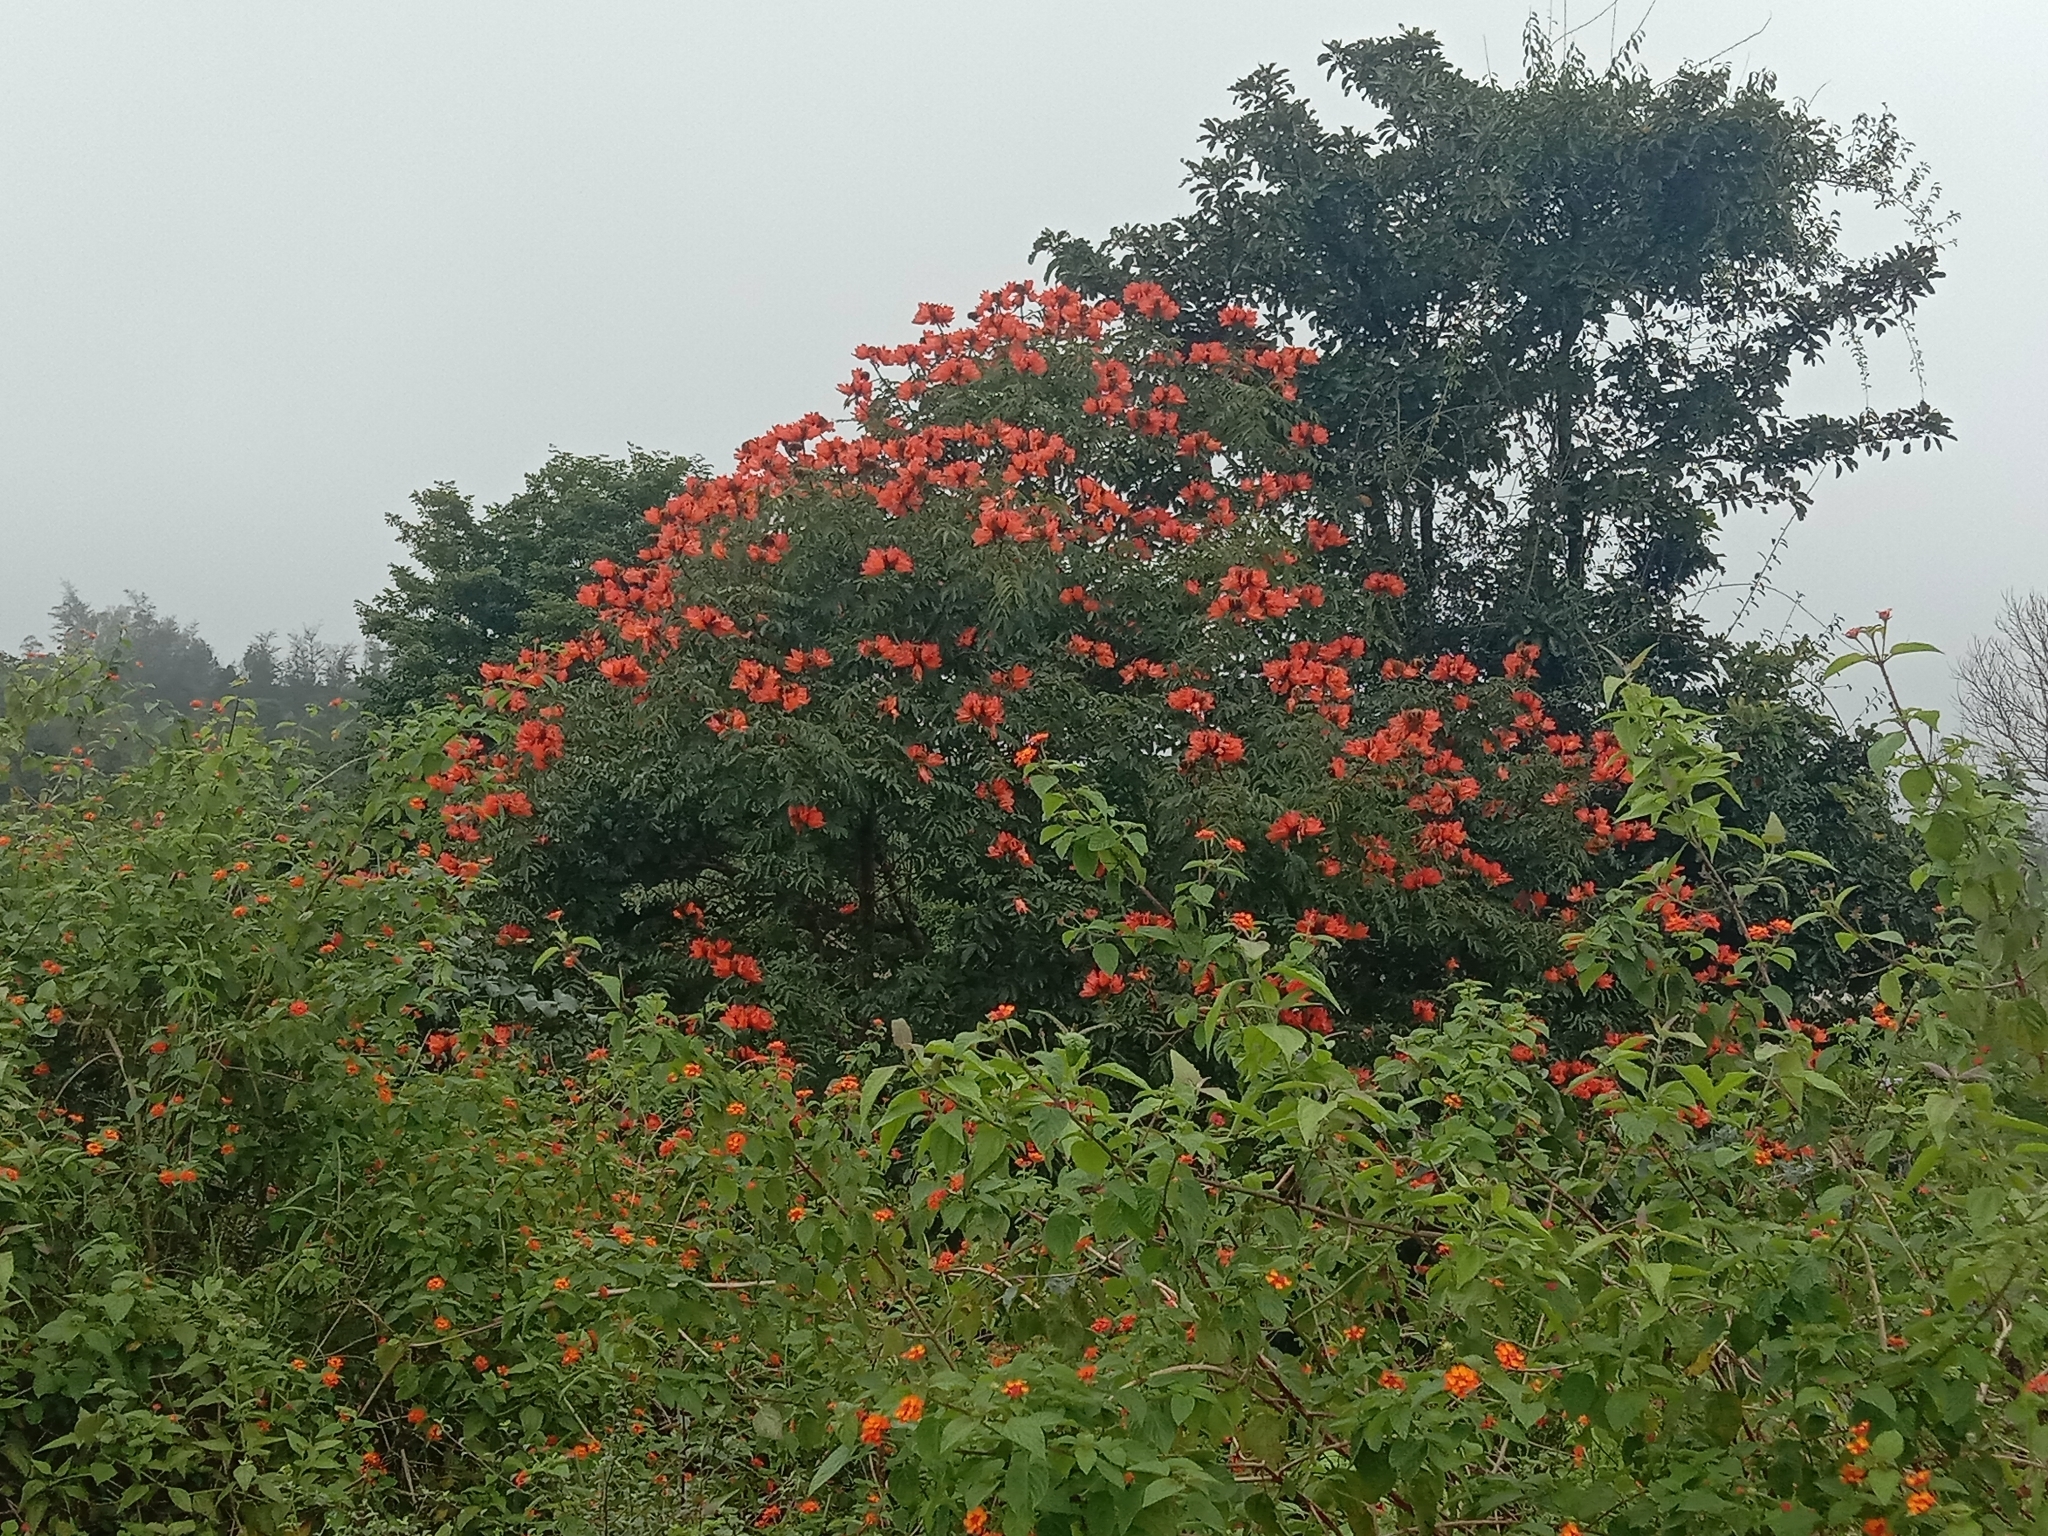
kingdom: Plantae
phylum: Tracheophyta
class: Magnoliopsida
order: Lamiales
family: Bignoniaceae
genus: Spathodea
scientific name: Spathodea campanulata
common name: African tuliptree
